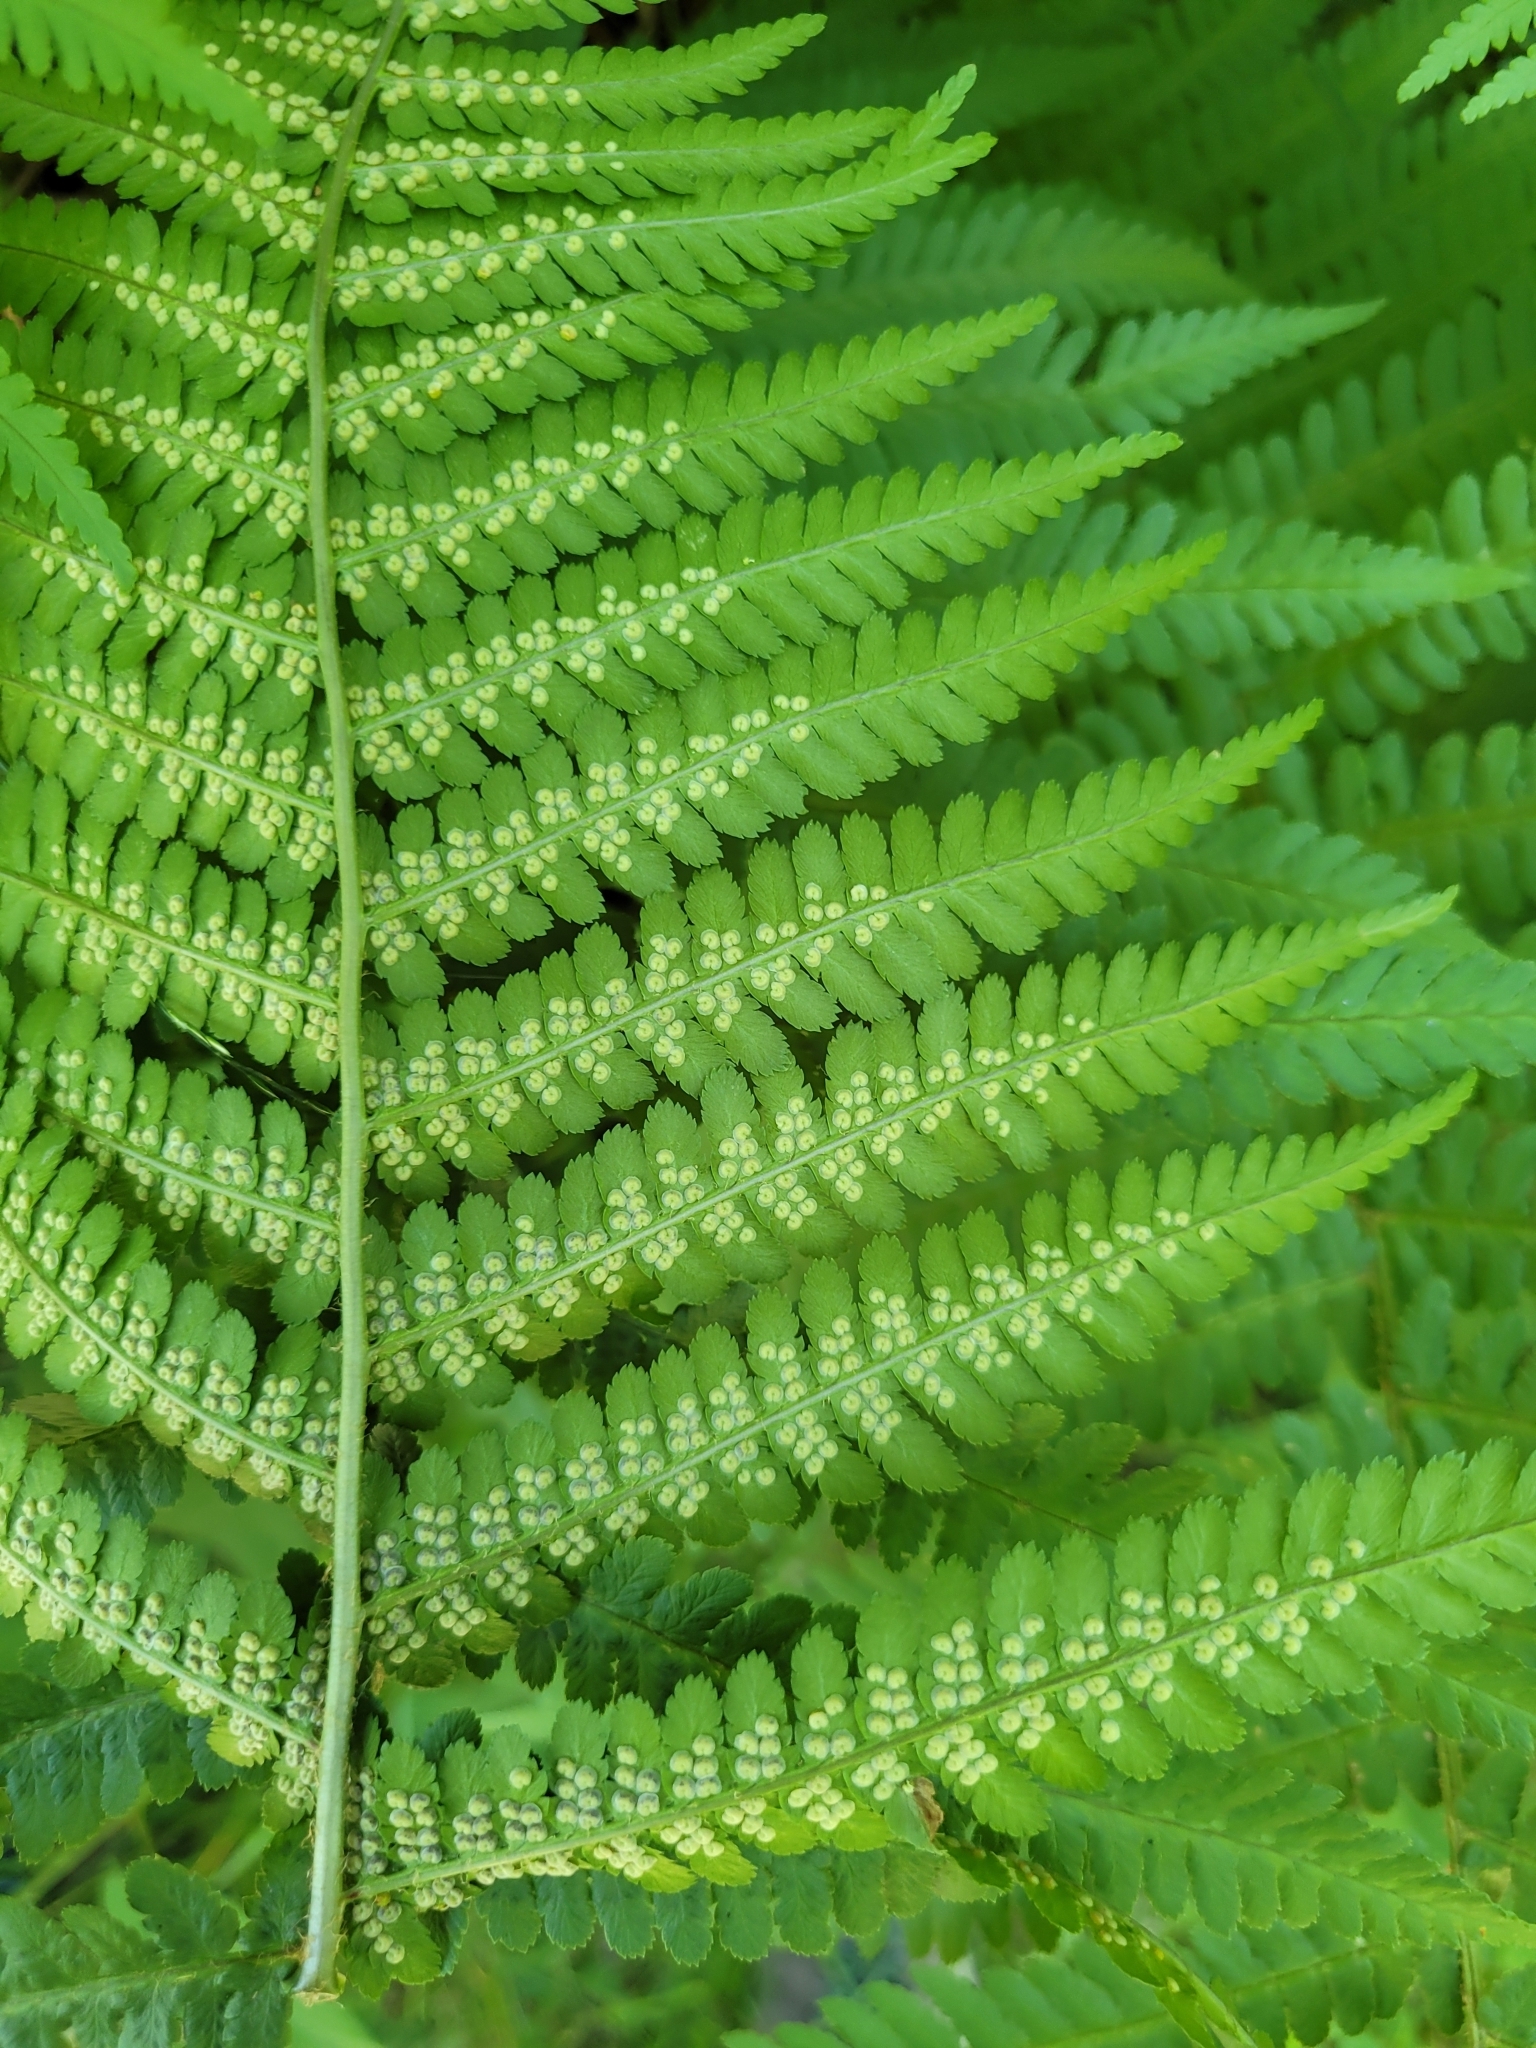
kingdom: Plantae
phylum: Tracheophyta
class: Polypodiopsida
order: Polypodiales
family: Dryopteridaceae
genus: Dryopteris
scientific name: Dryopteris filix-mas
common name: Male fern
